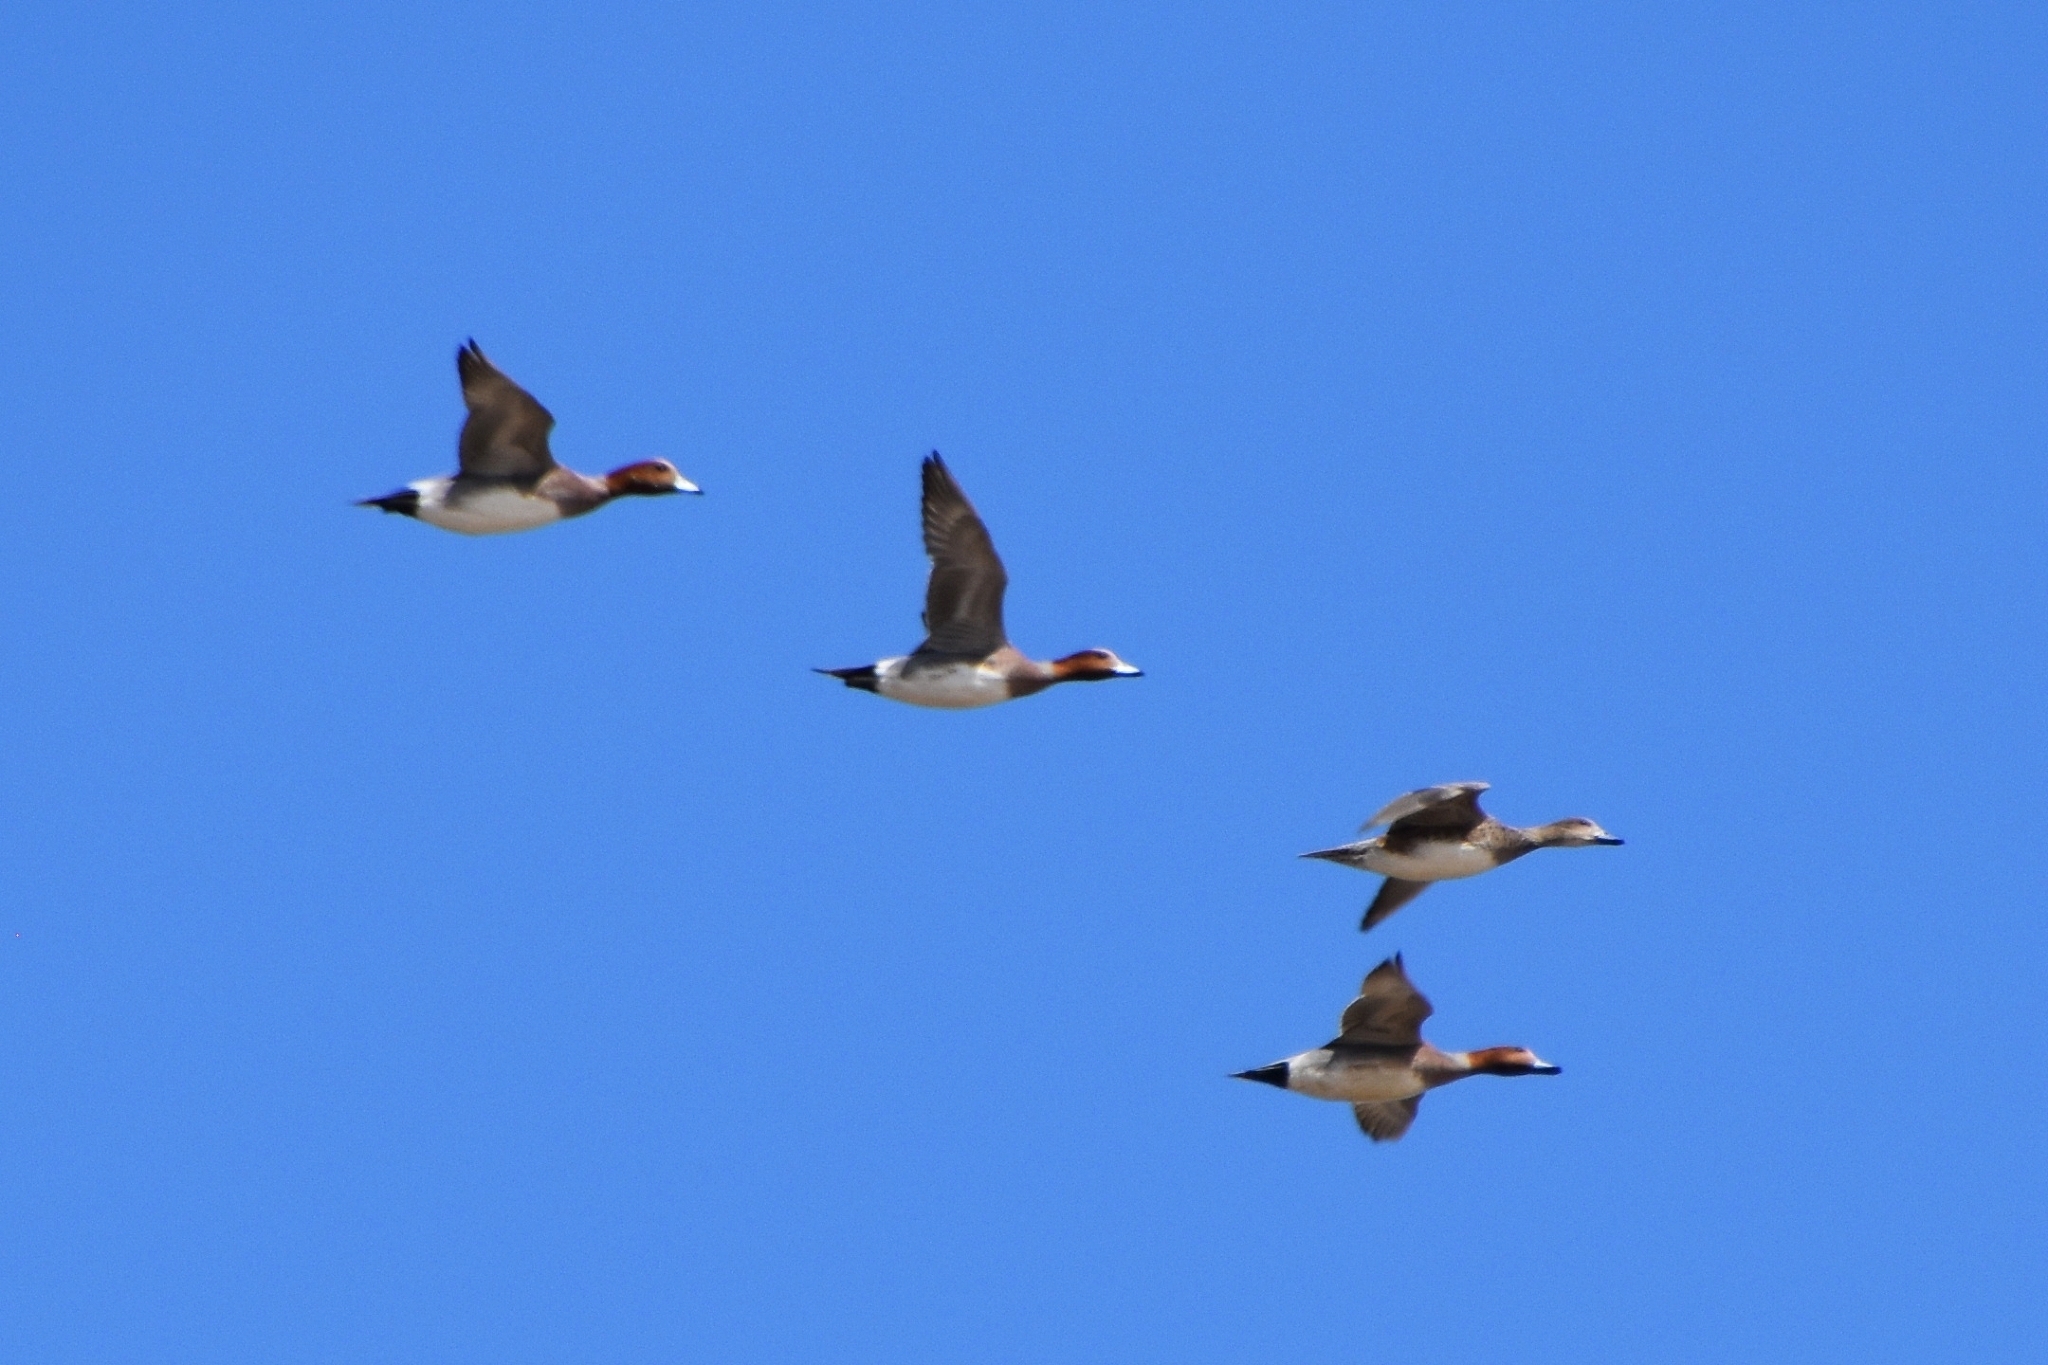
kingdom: Animalia
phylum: Chordata
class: Aves
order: Anseriformes
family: Anatidae
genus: Mareca
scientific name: Mareca penelope
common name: Eurasian wigeon
